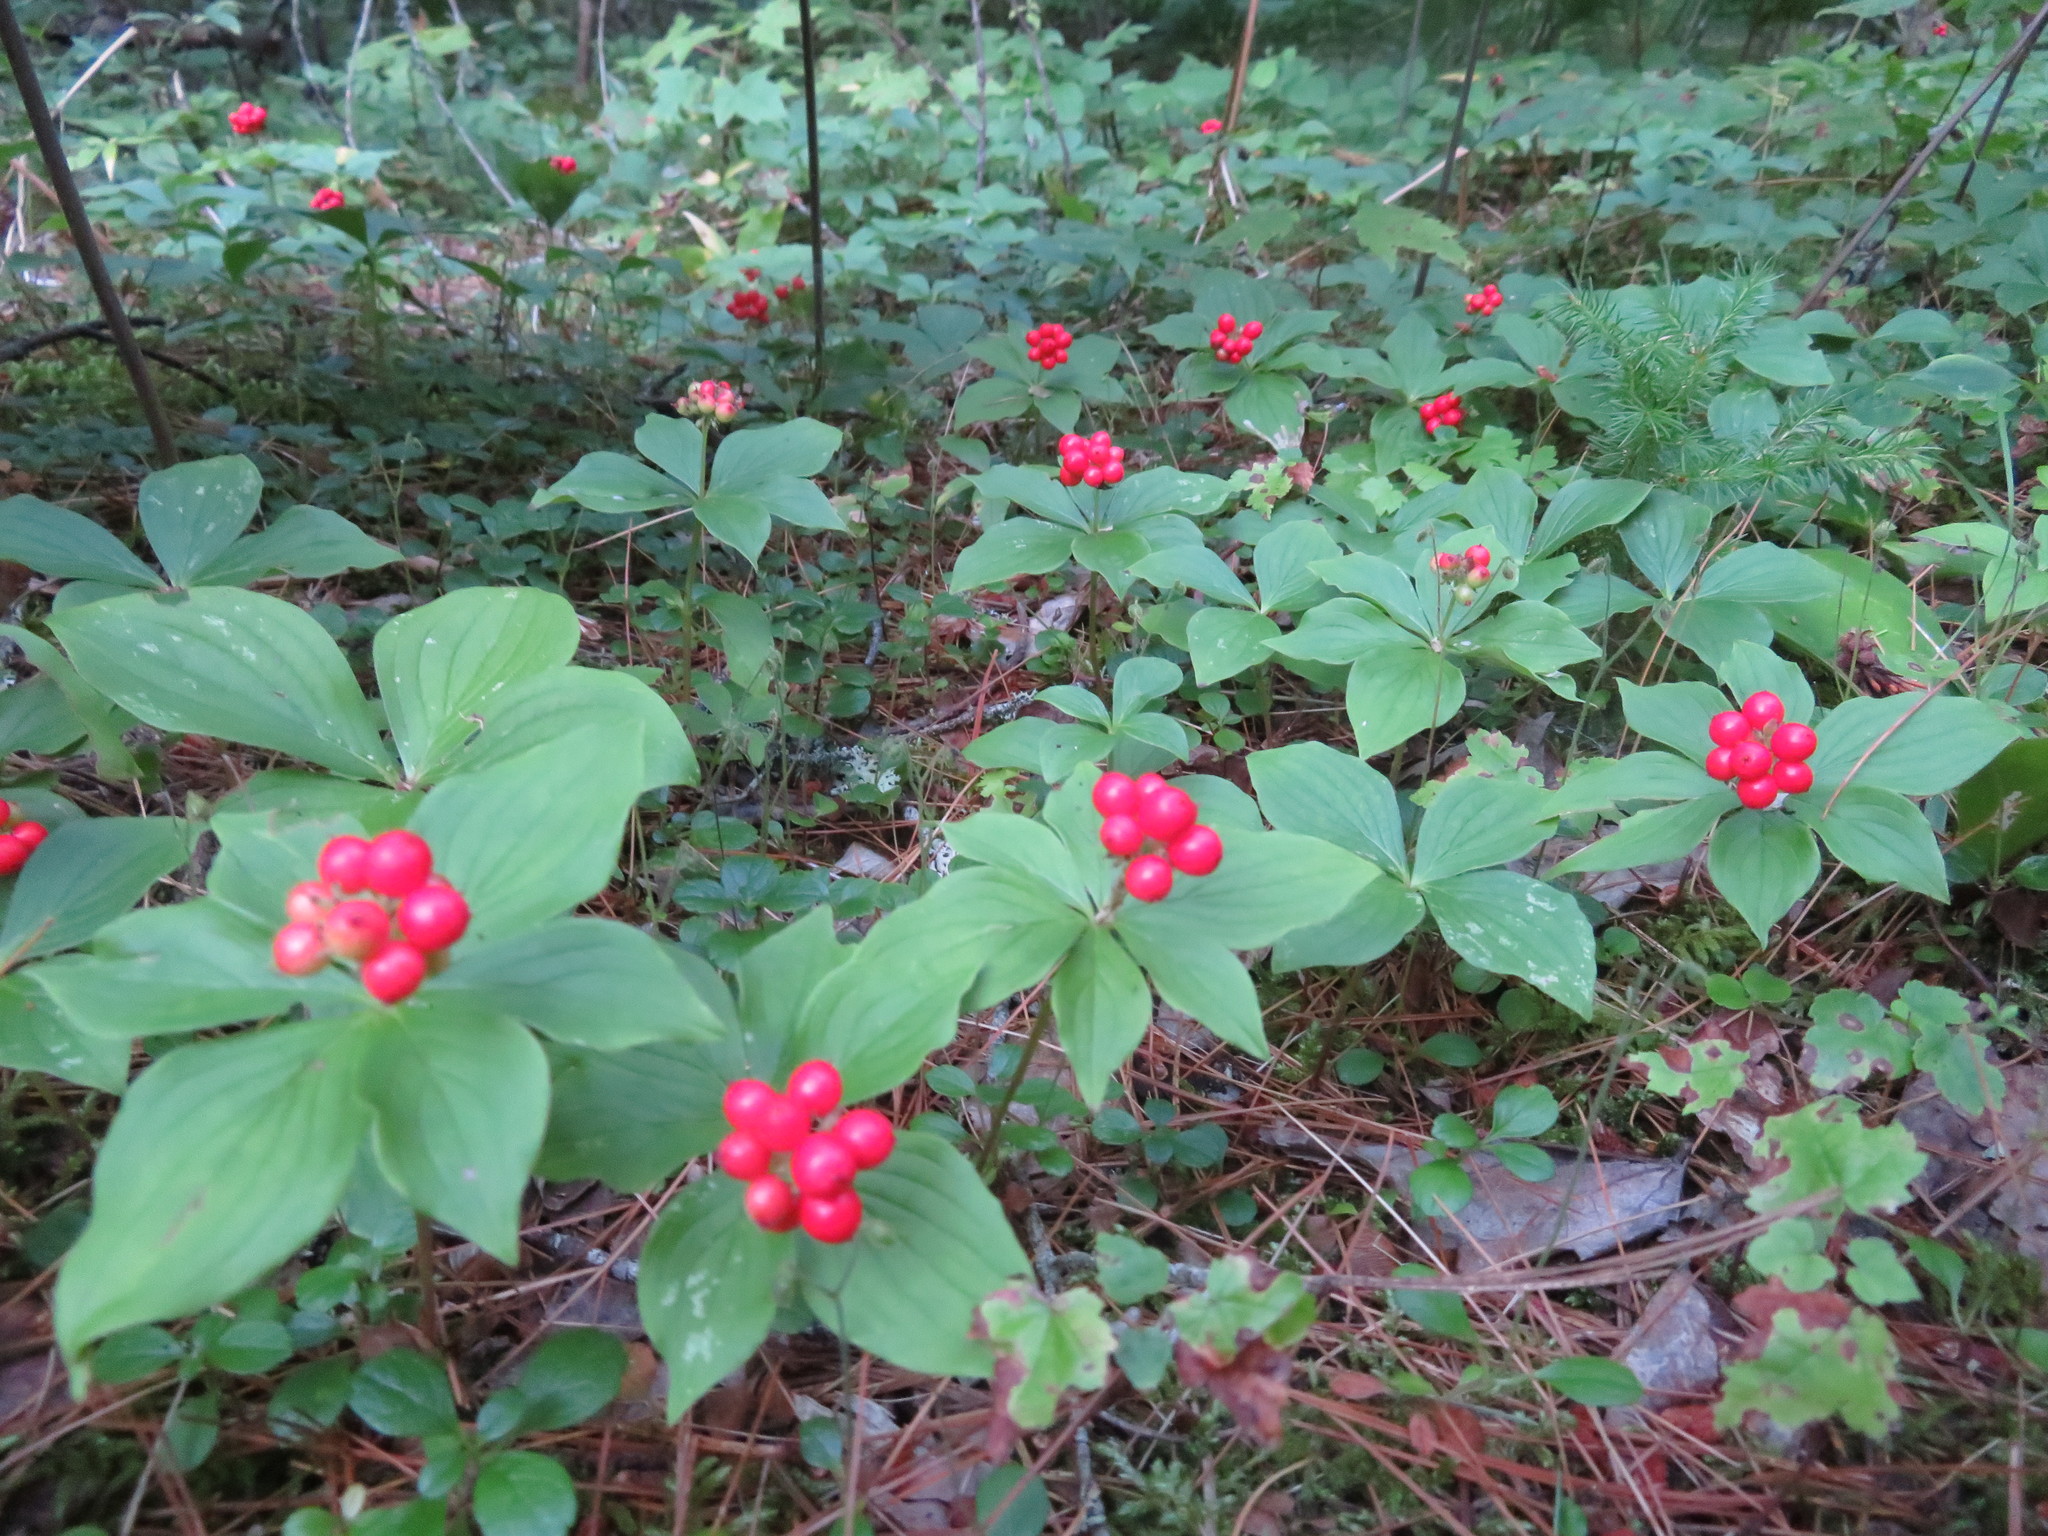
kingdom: Plantae
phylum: Tracheophyta
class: Magnoliopsida
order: Cornales
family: Cornaceae
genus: Cornus
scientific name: Cornus canadensis
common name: Creeping dogwood
